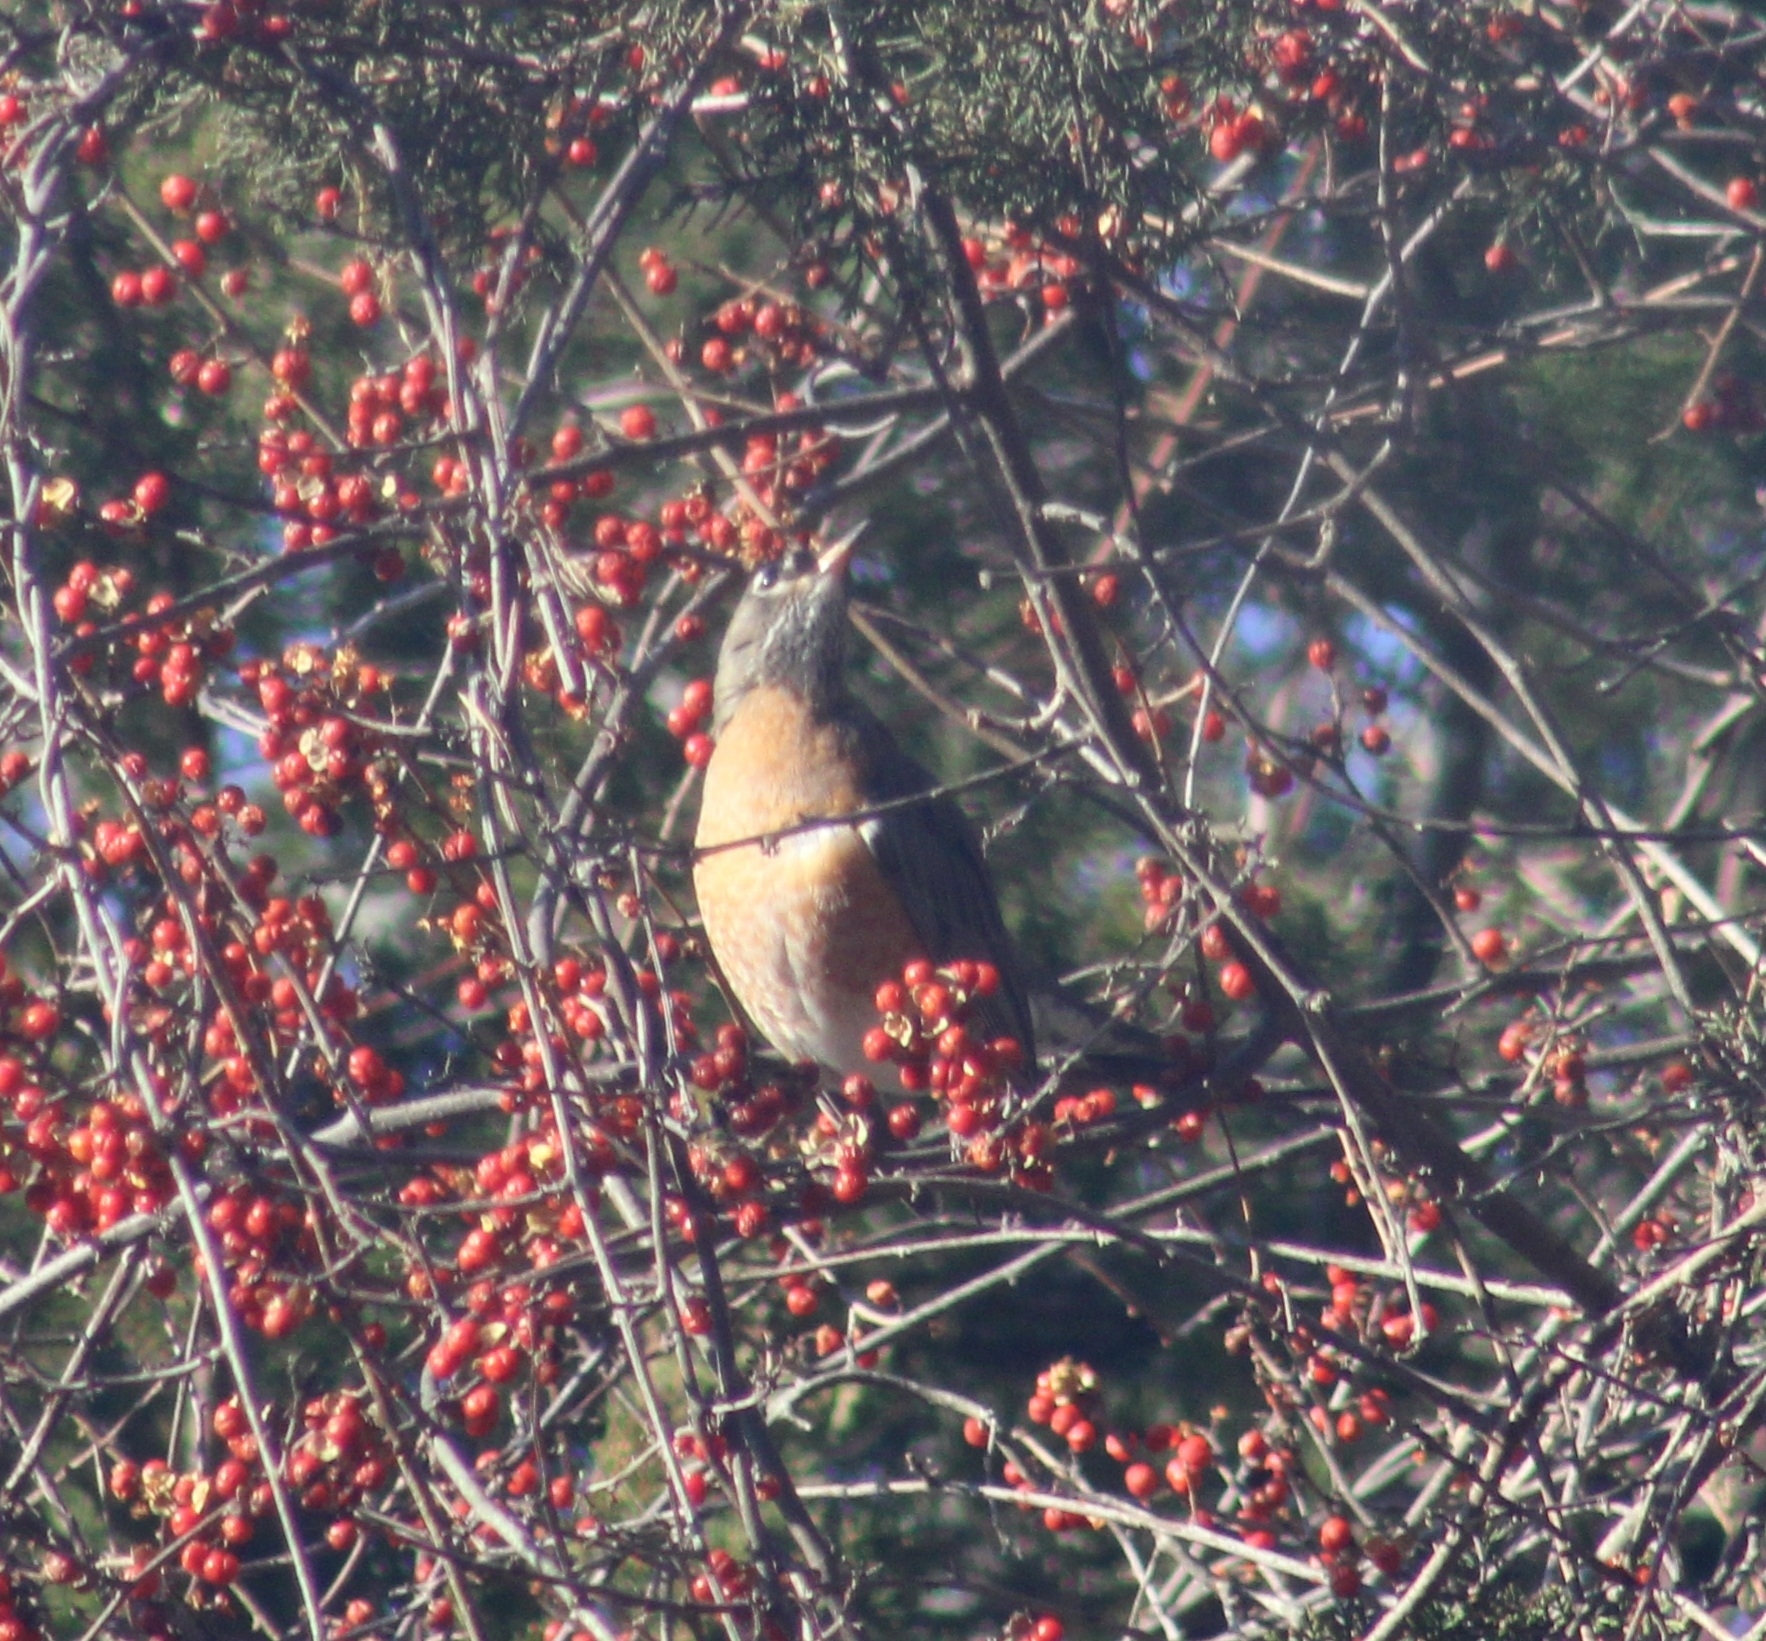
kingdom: Animalia
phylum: Chordata
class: Aves
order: Passeriformes
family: Turdidae
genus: Turdus
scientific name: Turdus migratorius
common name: American robin
